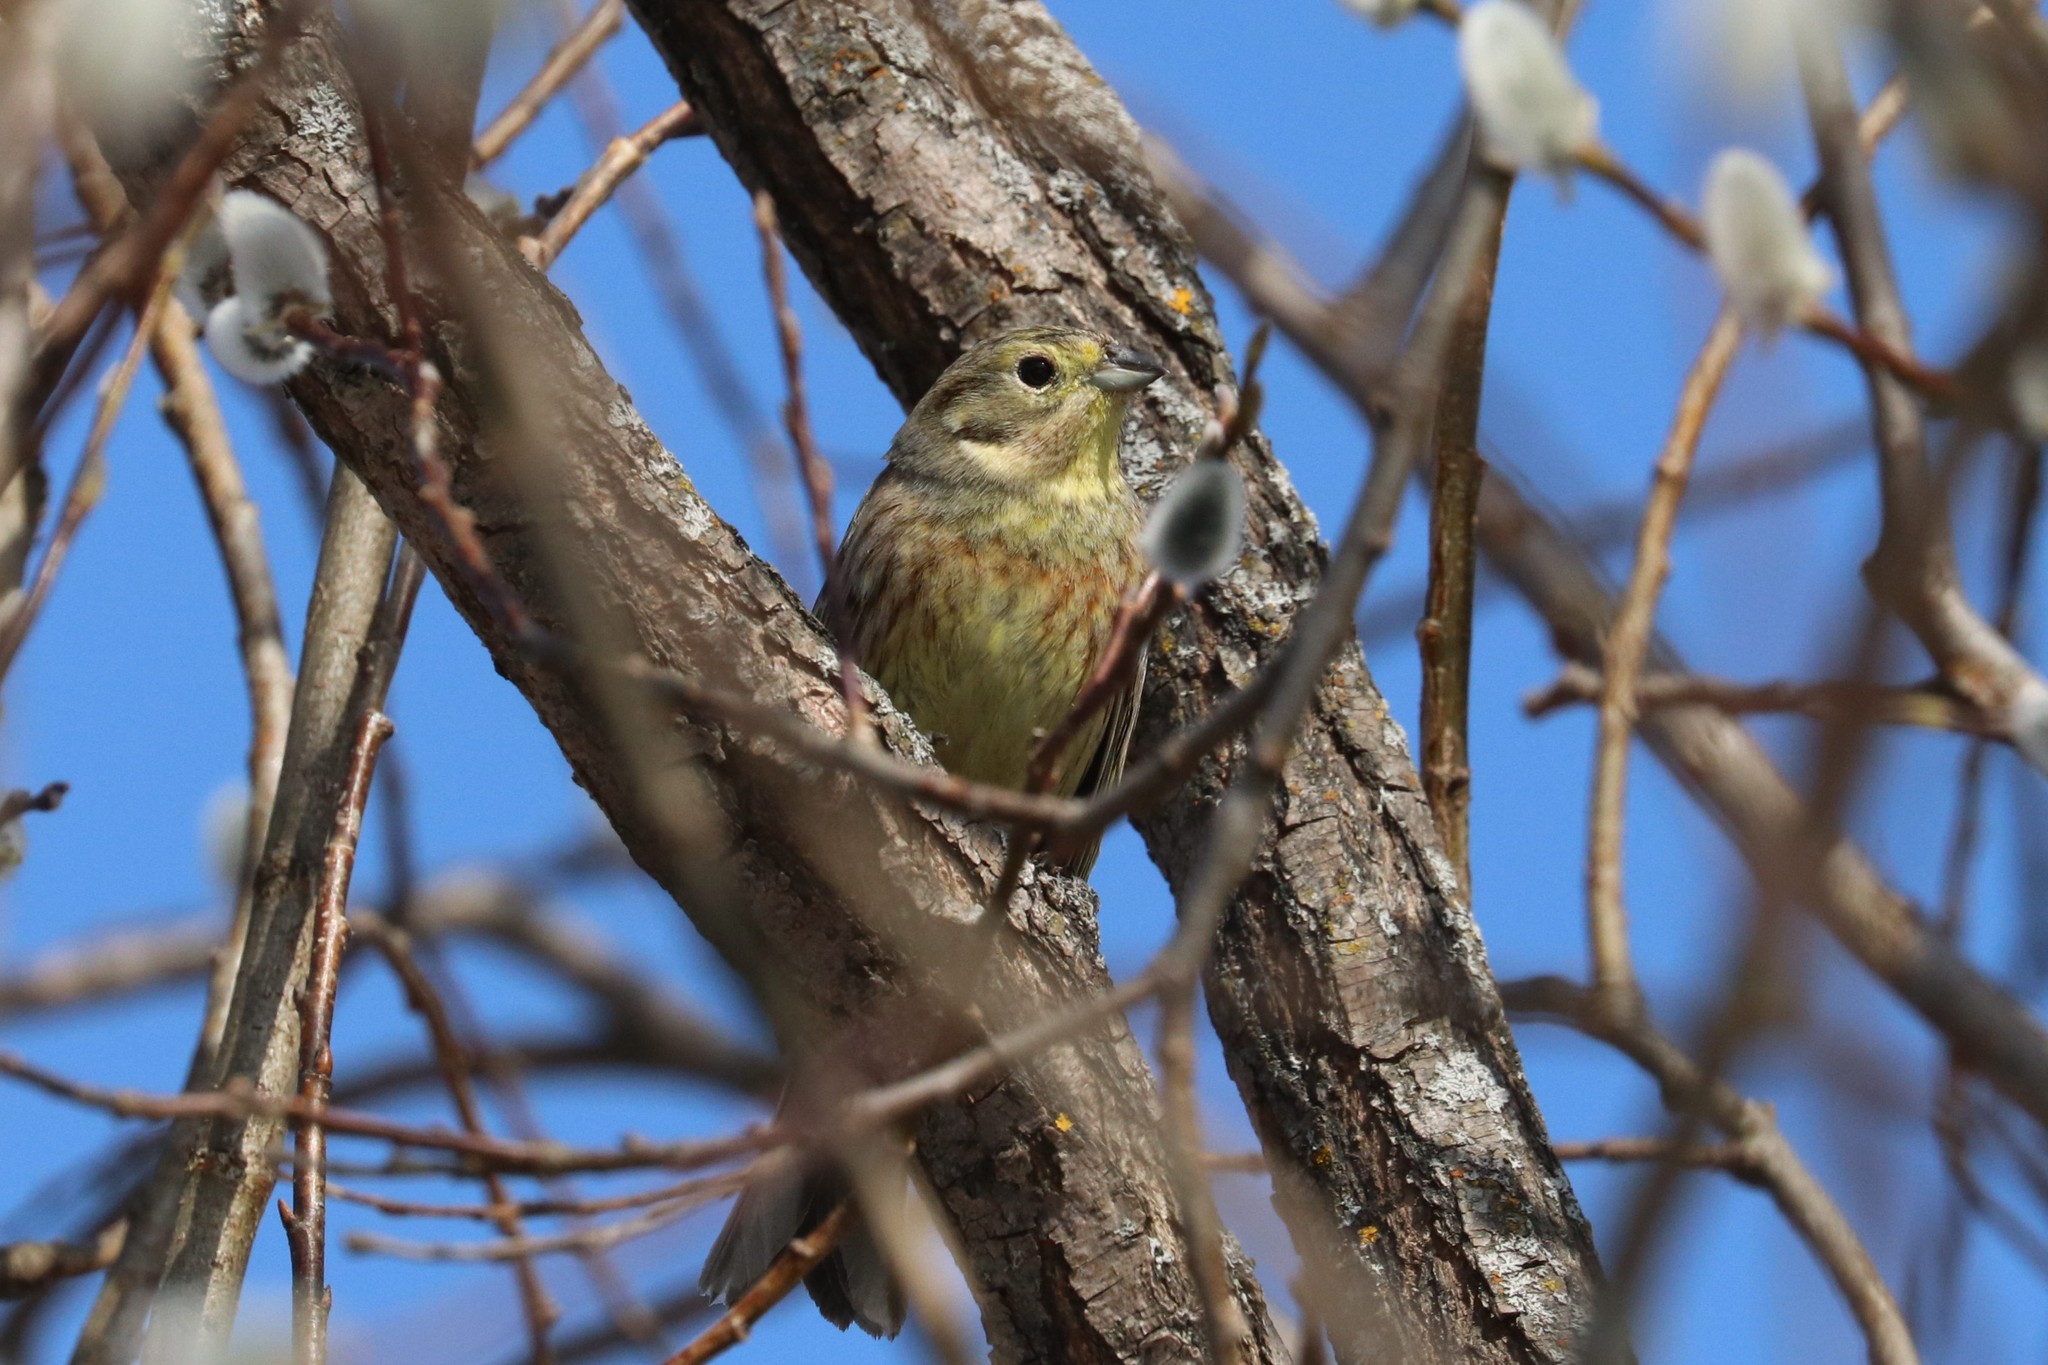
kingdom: Animalia
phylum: Chordata
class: Aves
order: Passeriformes
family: Emberizidae
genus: Emberiza
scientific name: Emberiza citrinella
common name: Yellowhammer
